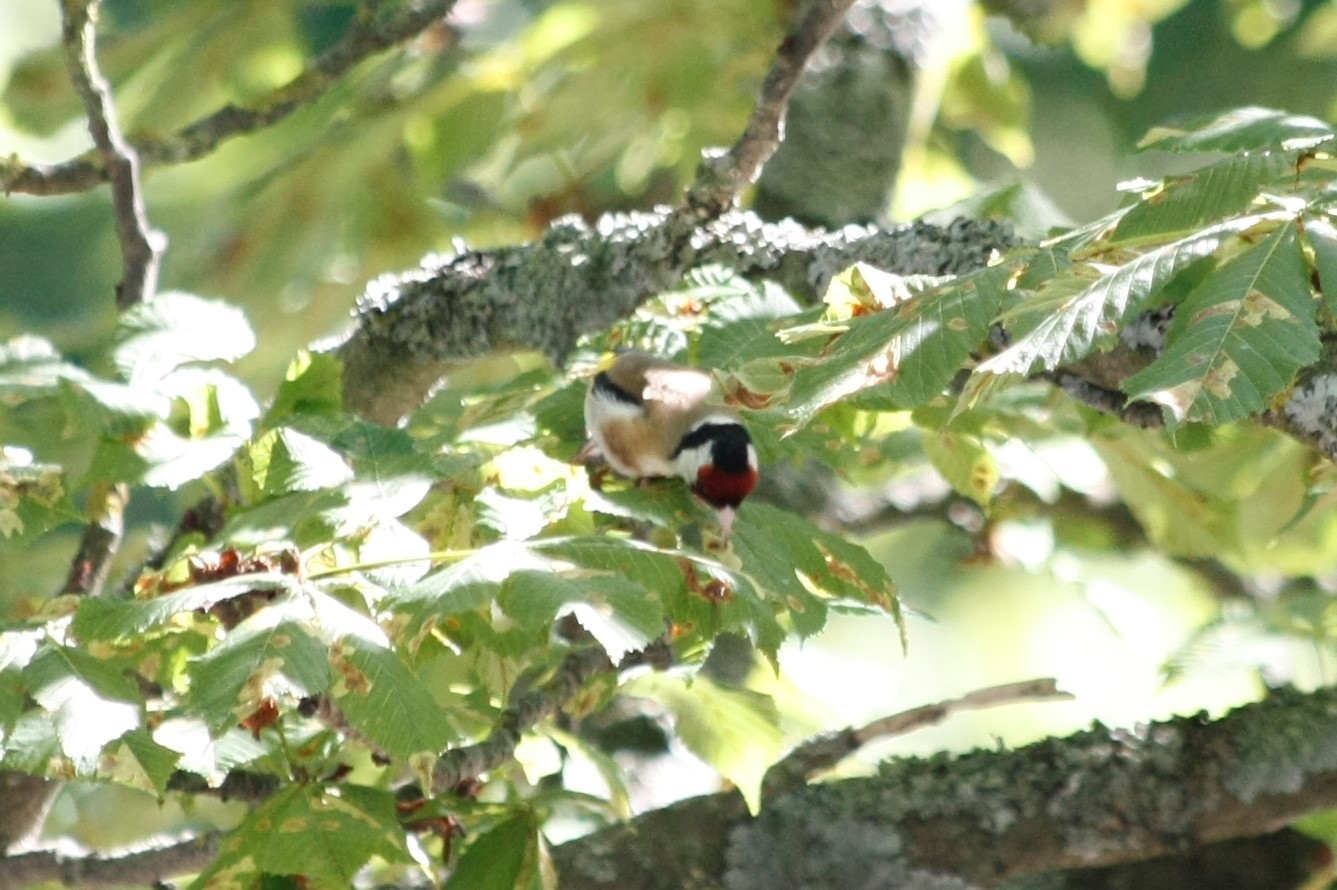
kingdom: Animalia
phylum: Chordata
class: Aves
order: Passeriformes
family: Fringillidae
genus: Carduelis
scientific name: Carduelis carduelis
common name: European goldfinch
